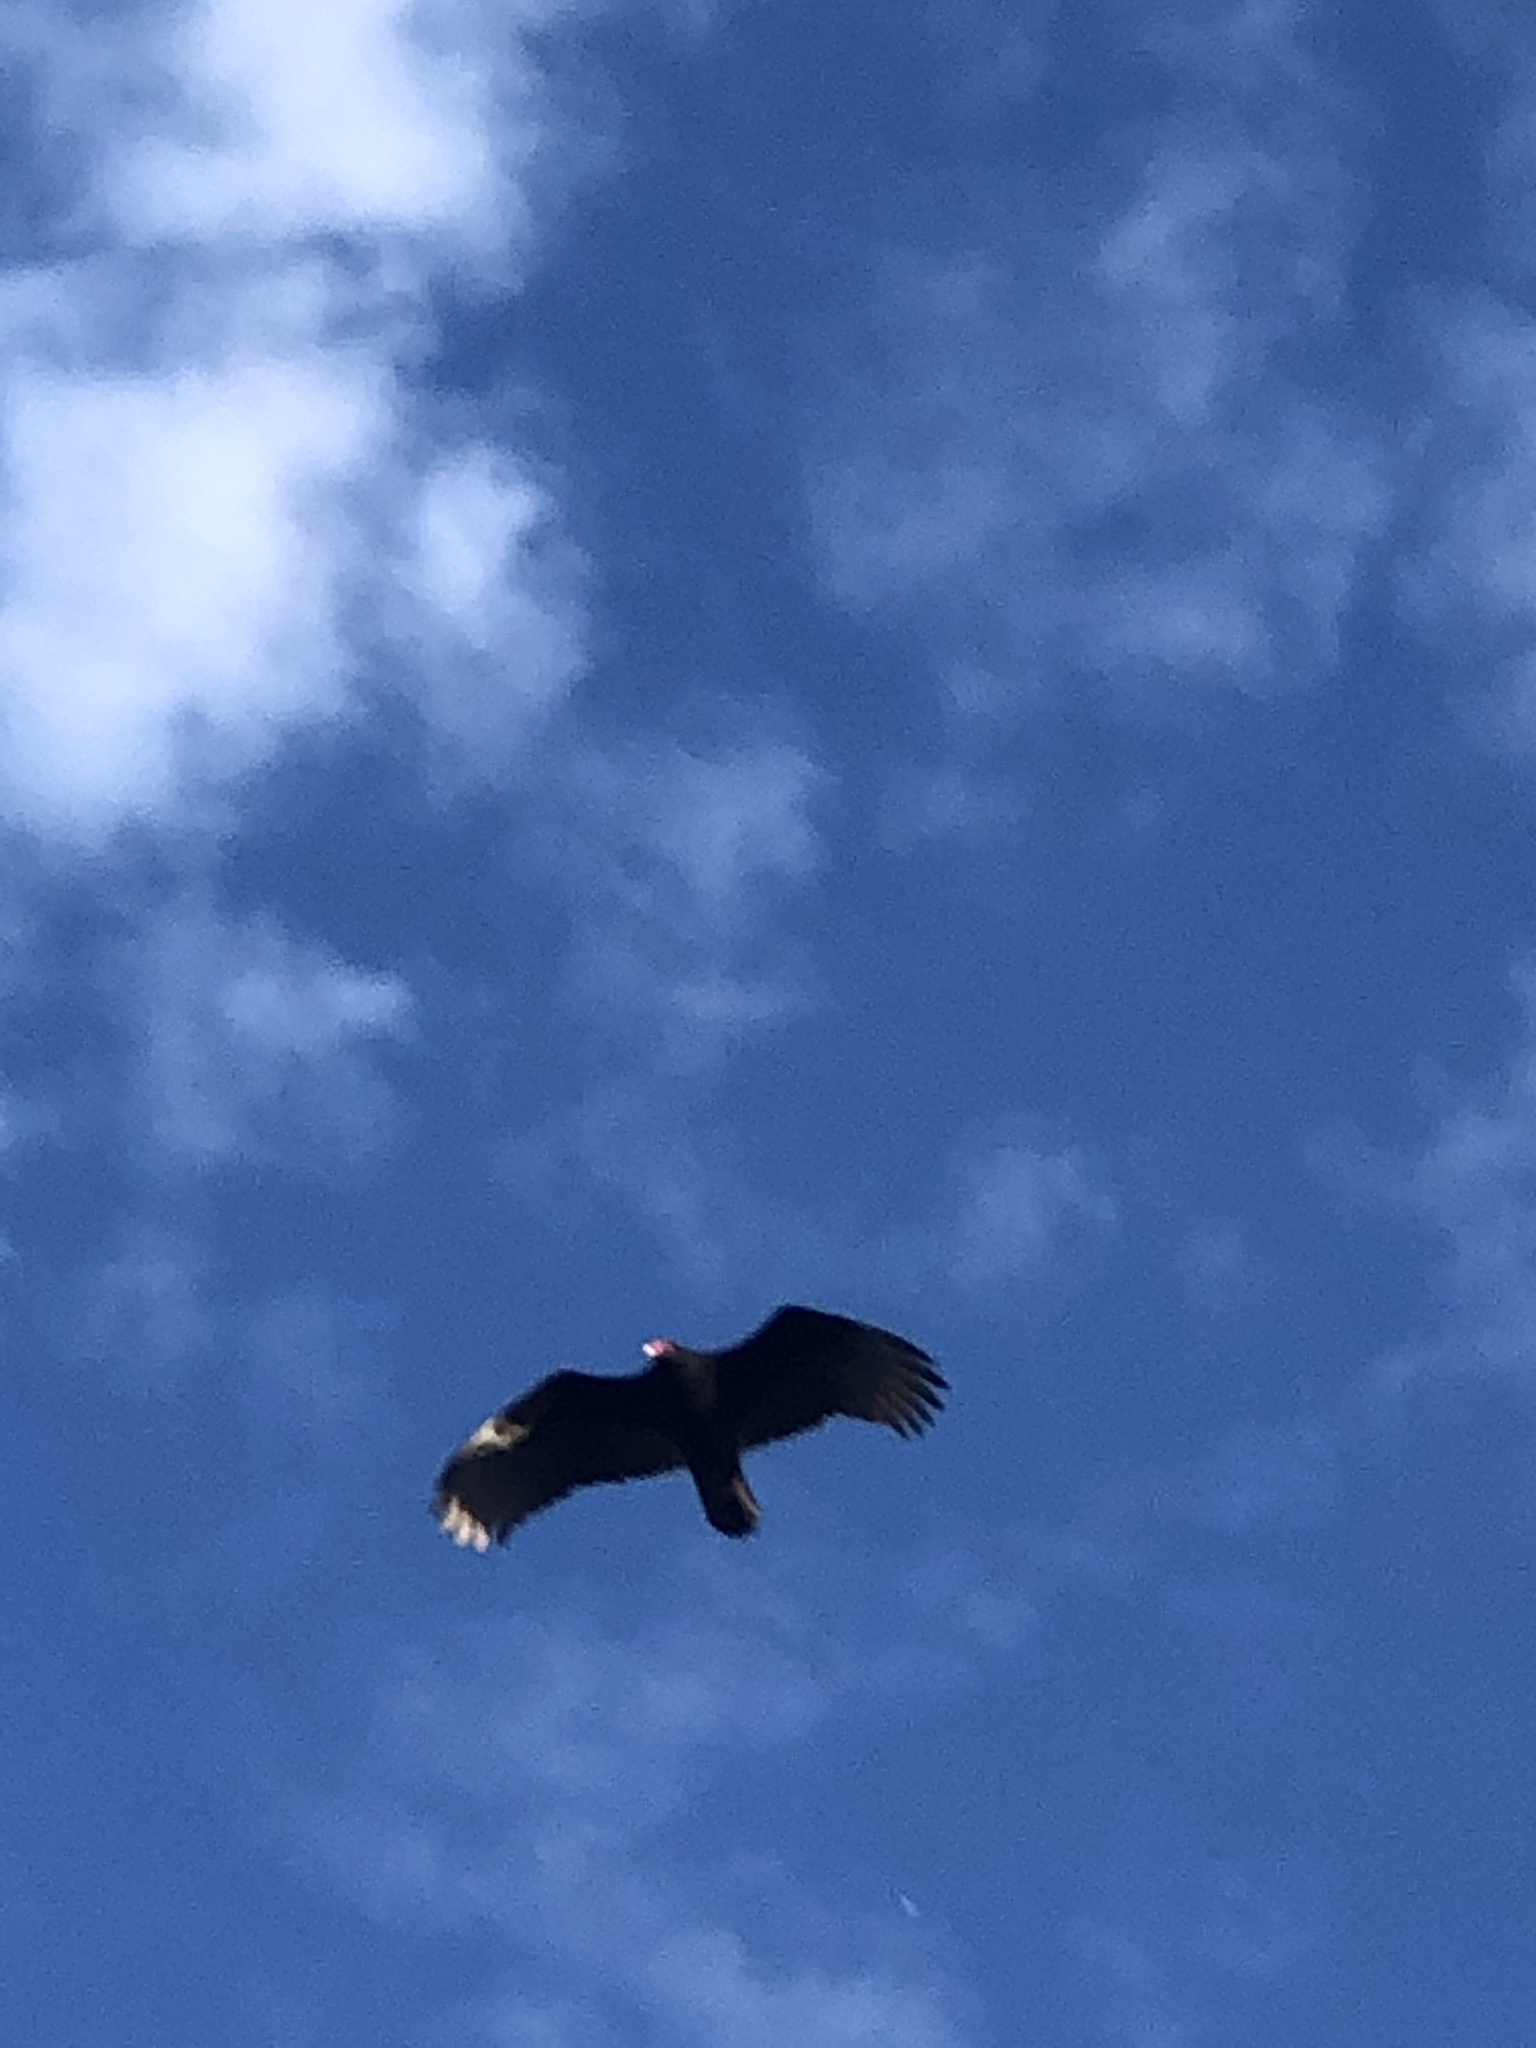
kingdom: Animalia
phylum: Chordata
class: Aves
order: Accipitriformes
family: Cathartidae
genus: Cathartes
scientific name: Cathartes aura
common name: Turkey vulture
